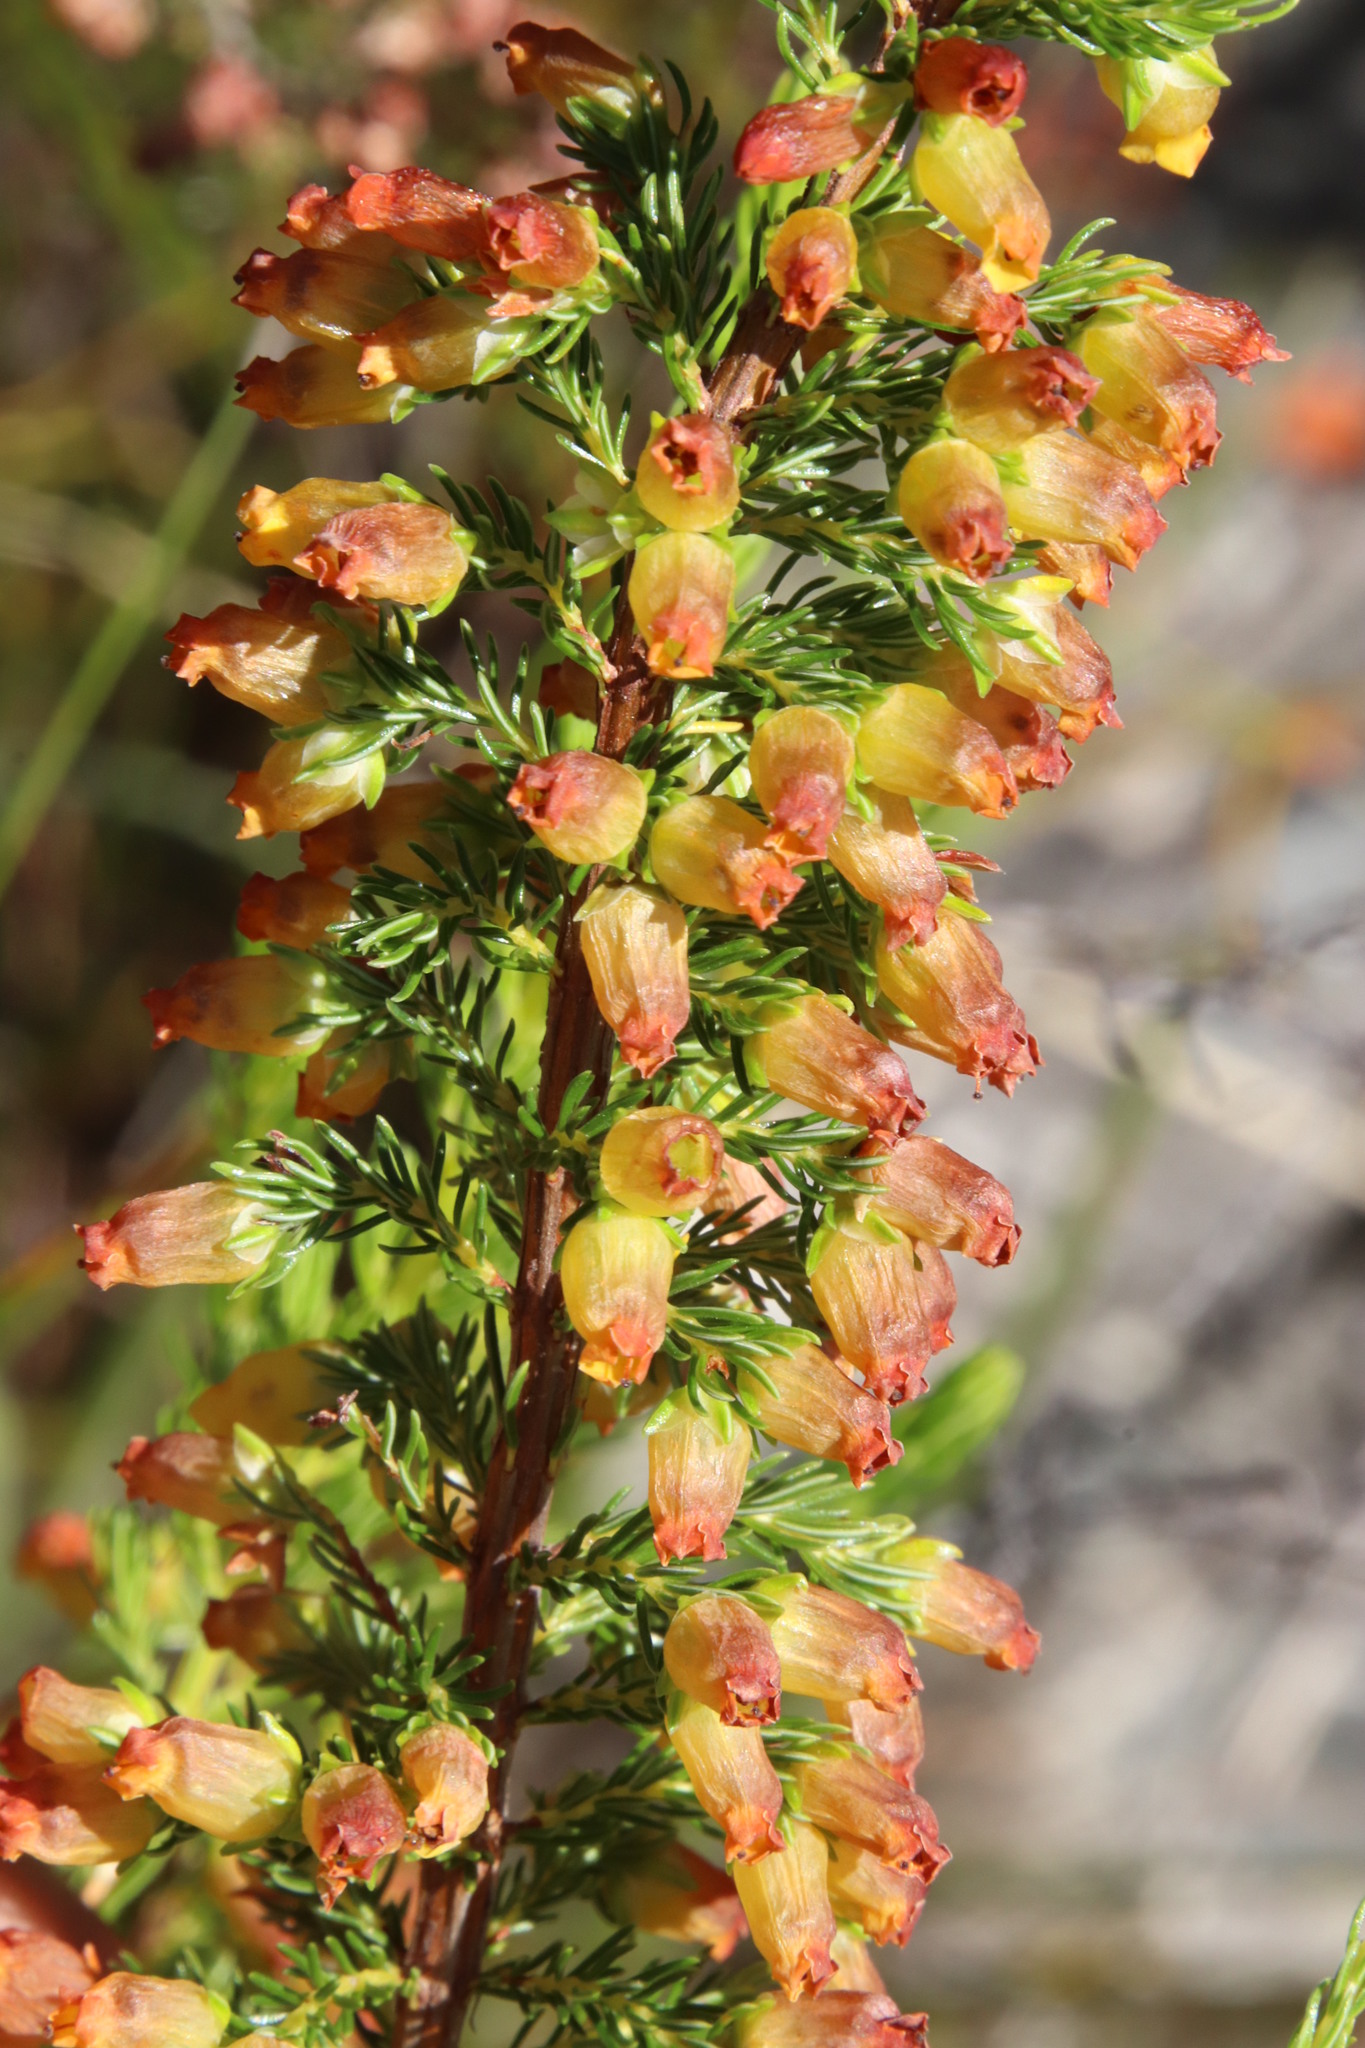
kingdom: Plantae
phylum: Tracheophyta
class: Magnoliopsida
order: Ericales
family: Ericaceae
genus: Erica
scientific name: Erica blandfordia
